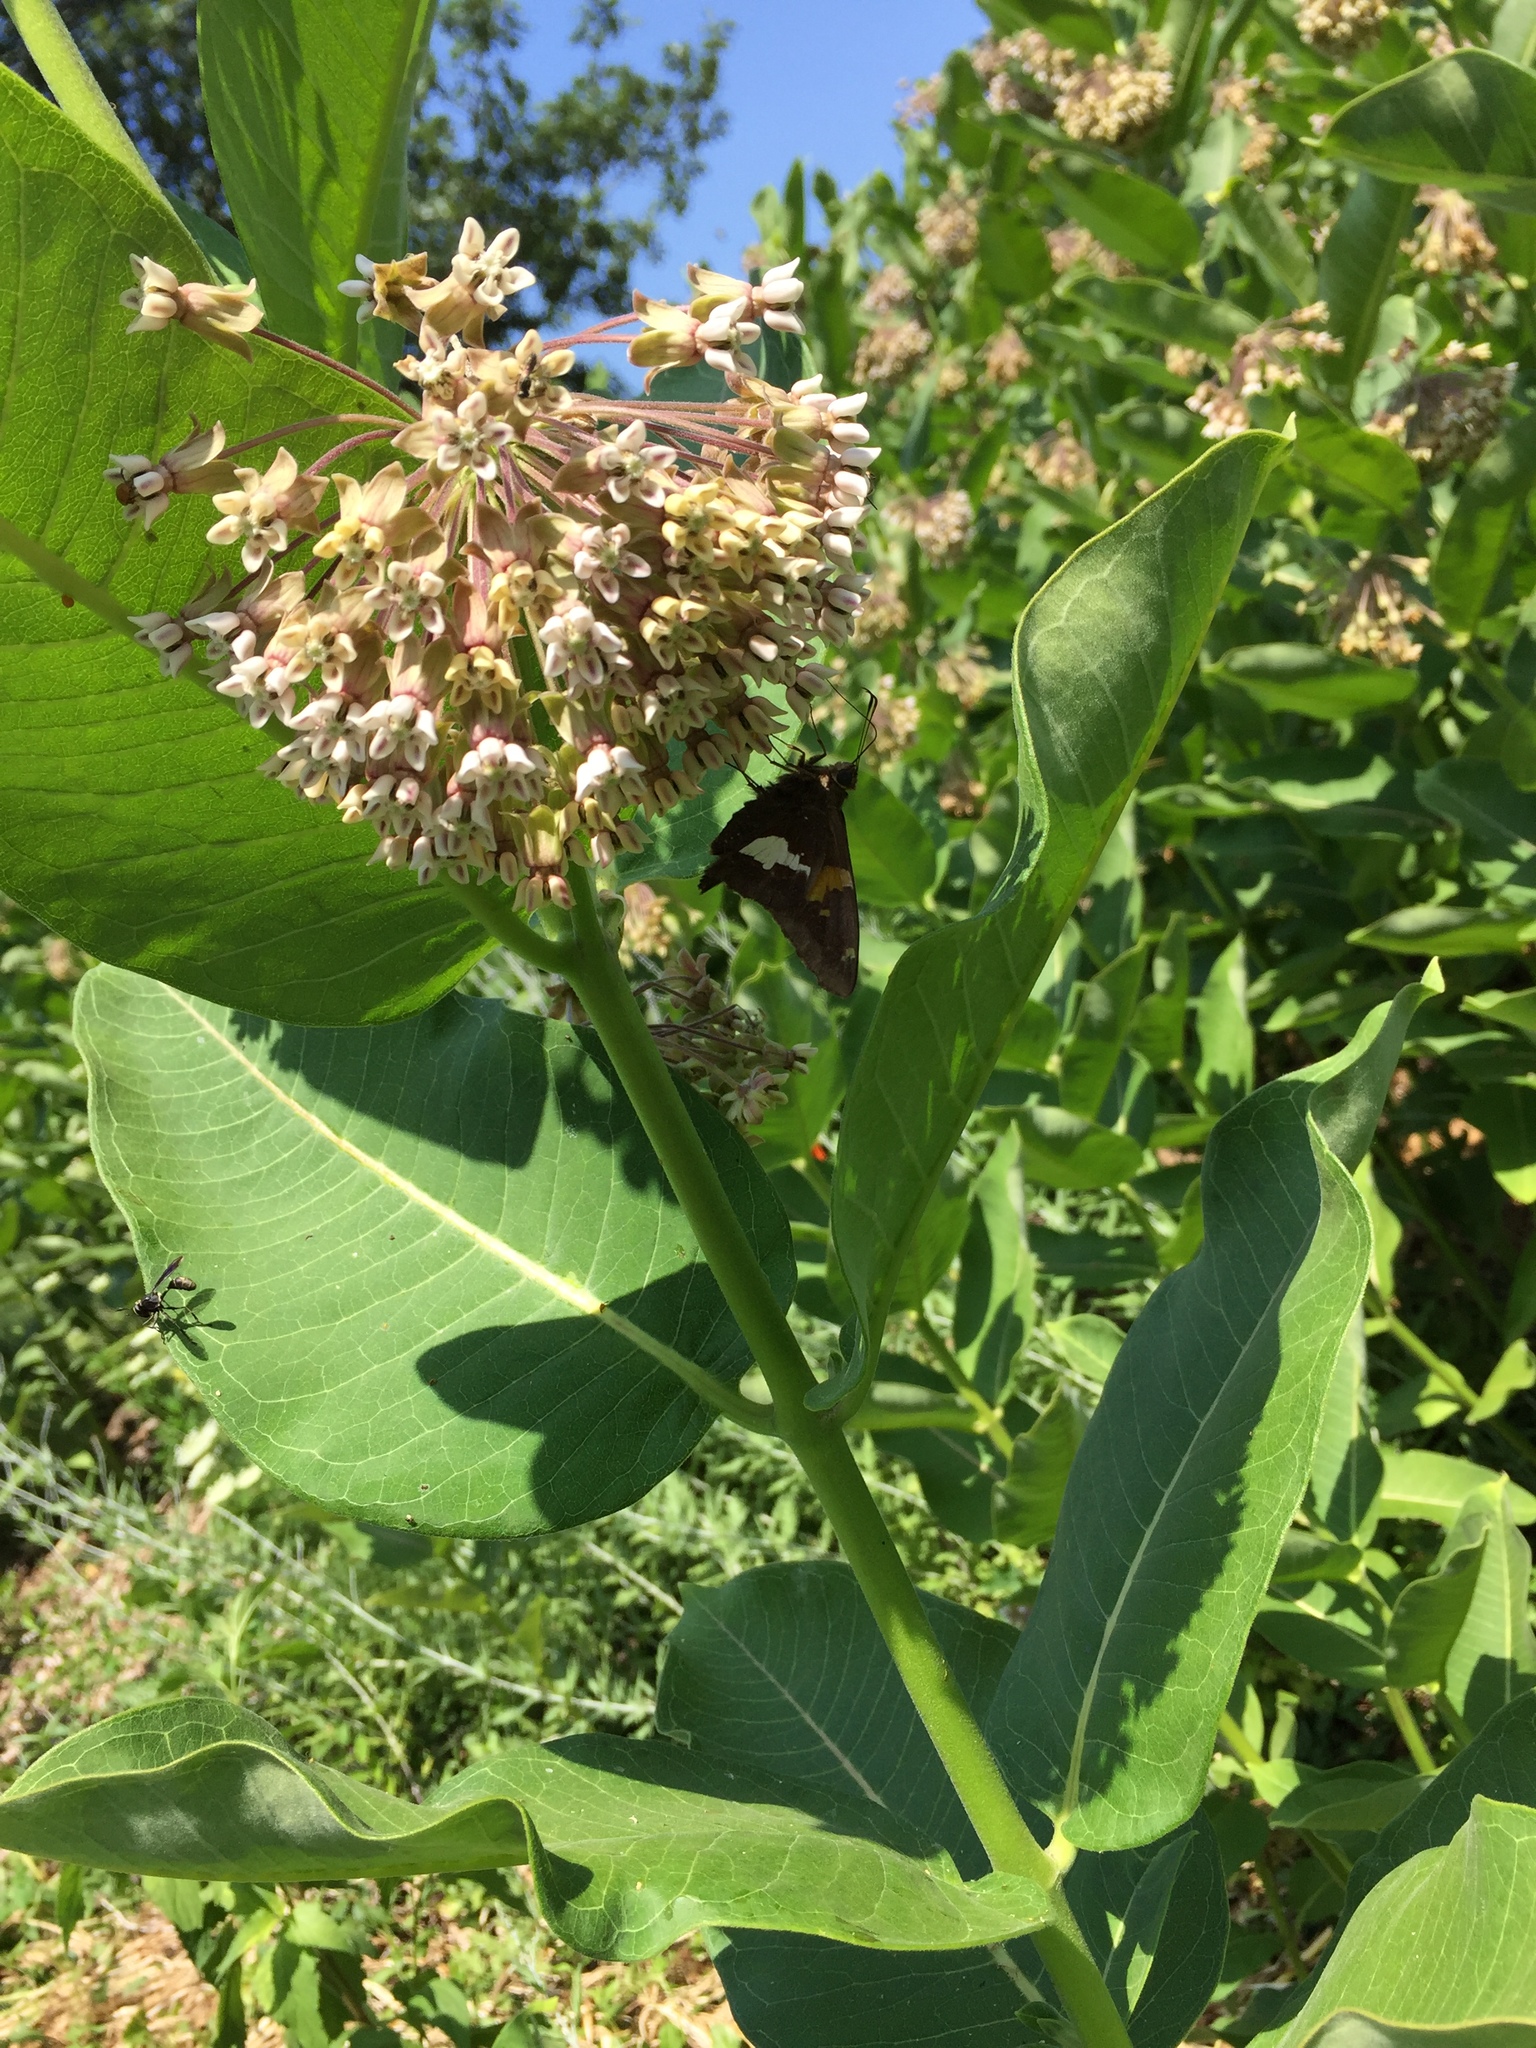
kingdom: Animalia
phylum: Arthropoda
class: Insecta
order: Lepidoptera
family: Hesperiidae
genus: Epargyreus
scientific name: Epargyreus clarus
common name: Silver-spotted skipper
